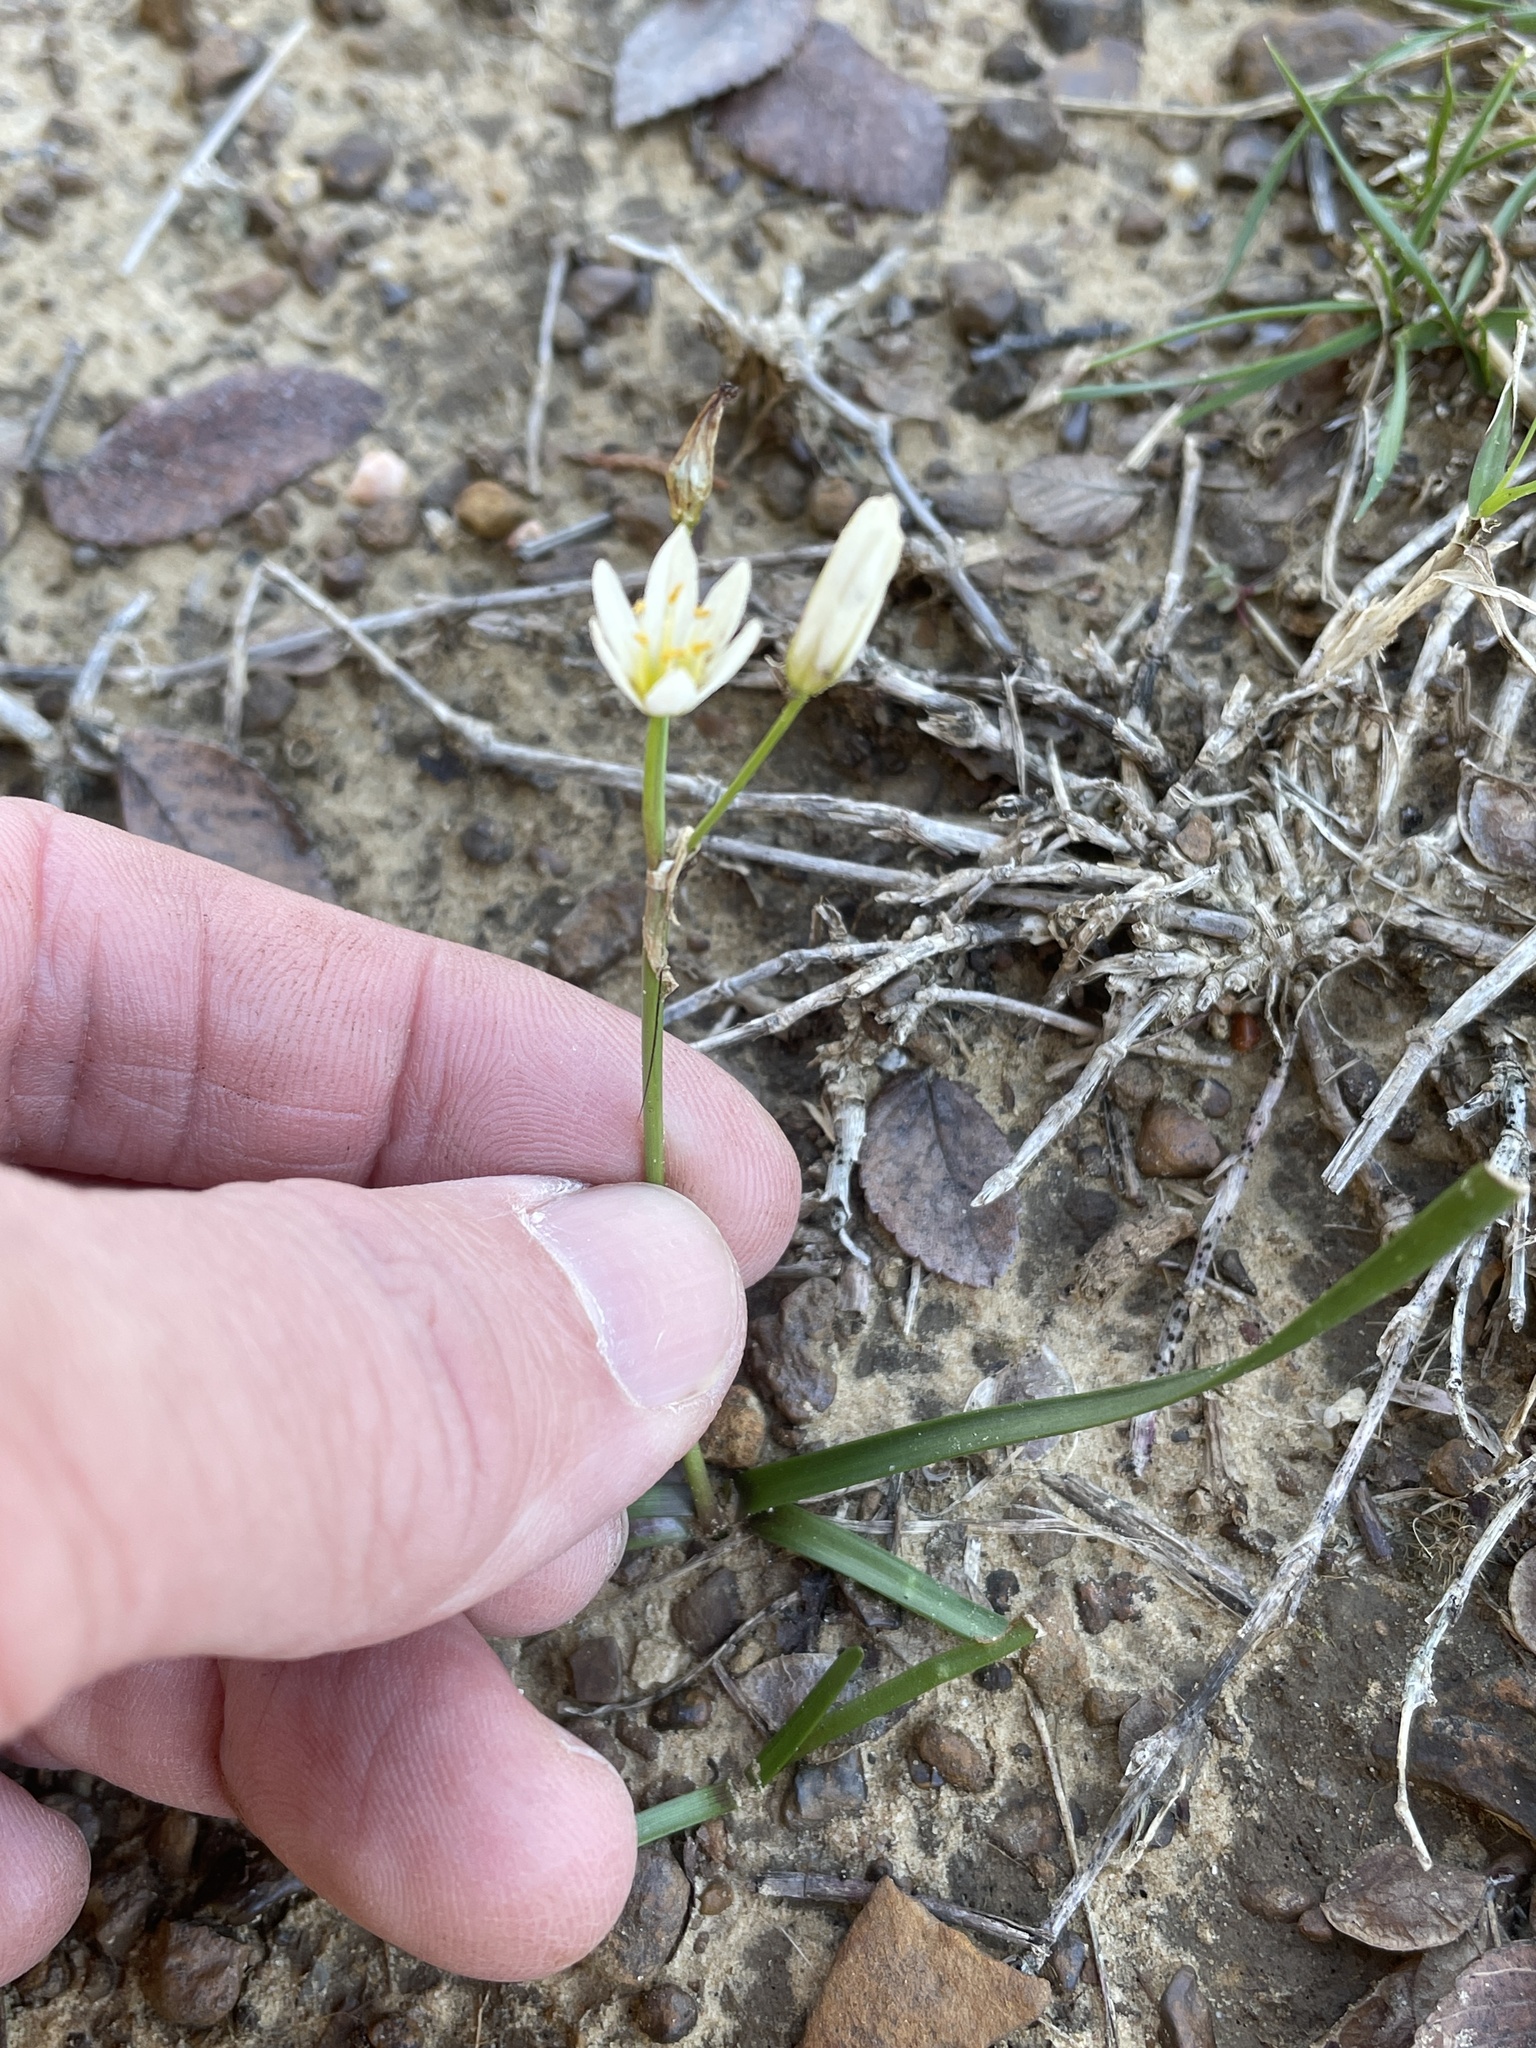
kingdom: Plantae
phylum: Tracheophyta
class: Liliopsida
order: Asparagales
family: Amaryllidaceae
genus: Nothoscordum
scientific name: Nothoscordum bivalve
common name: Crow-poison
